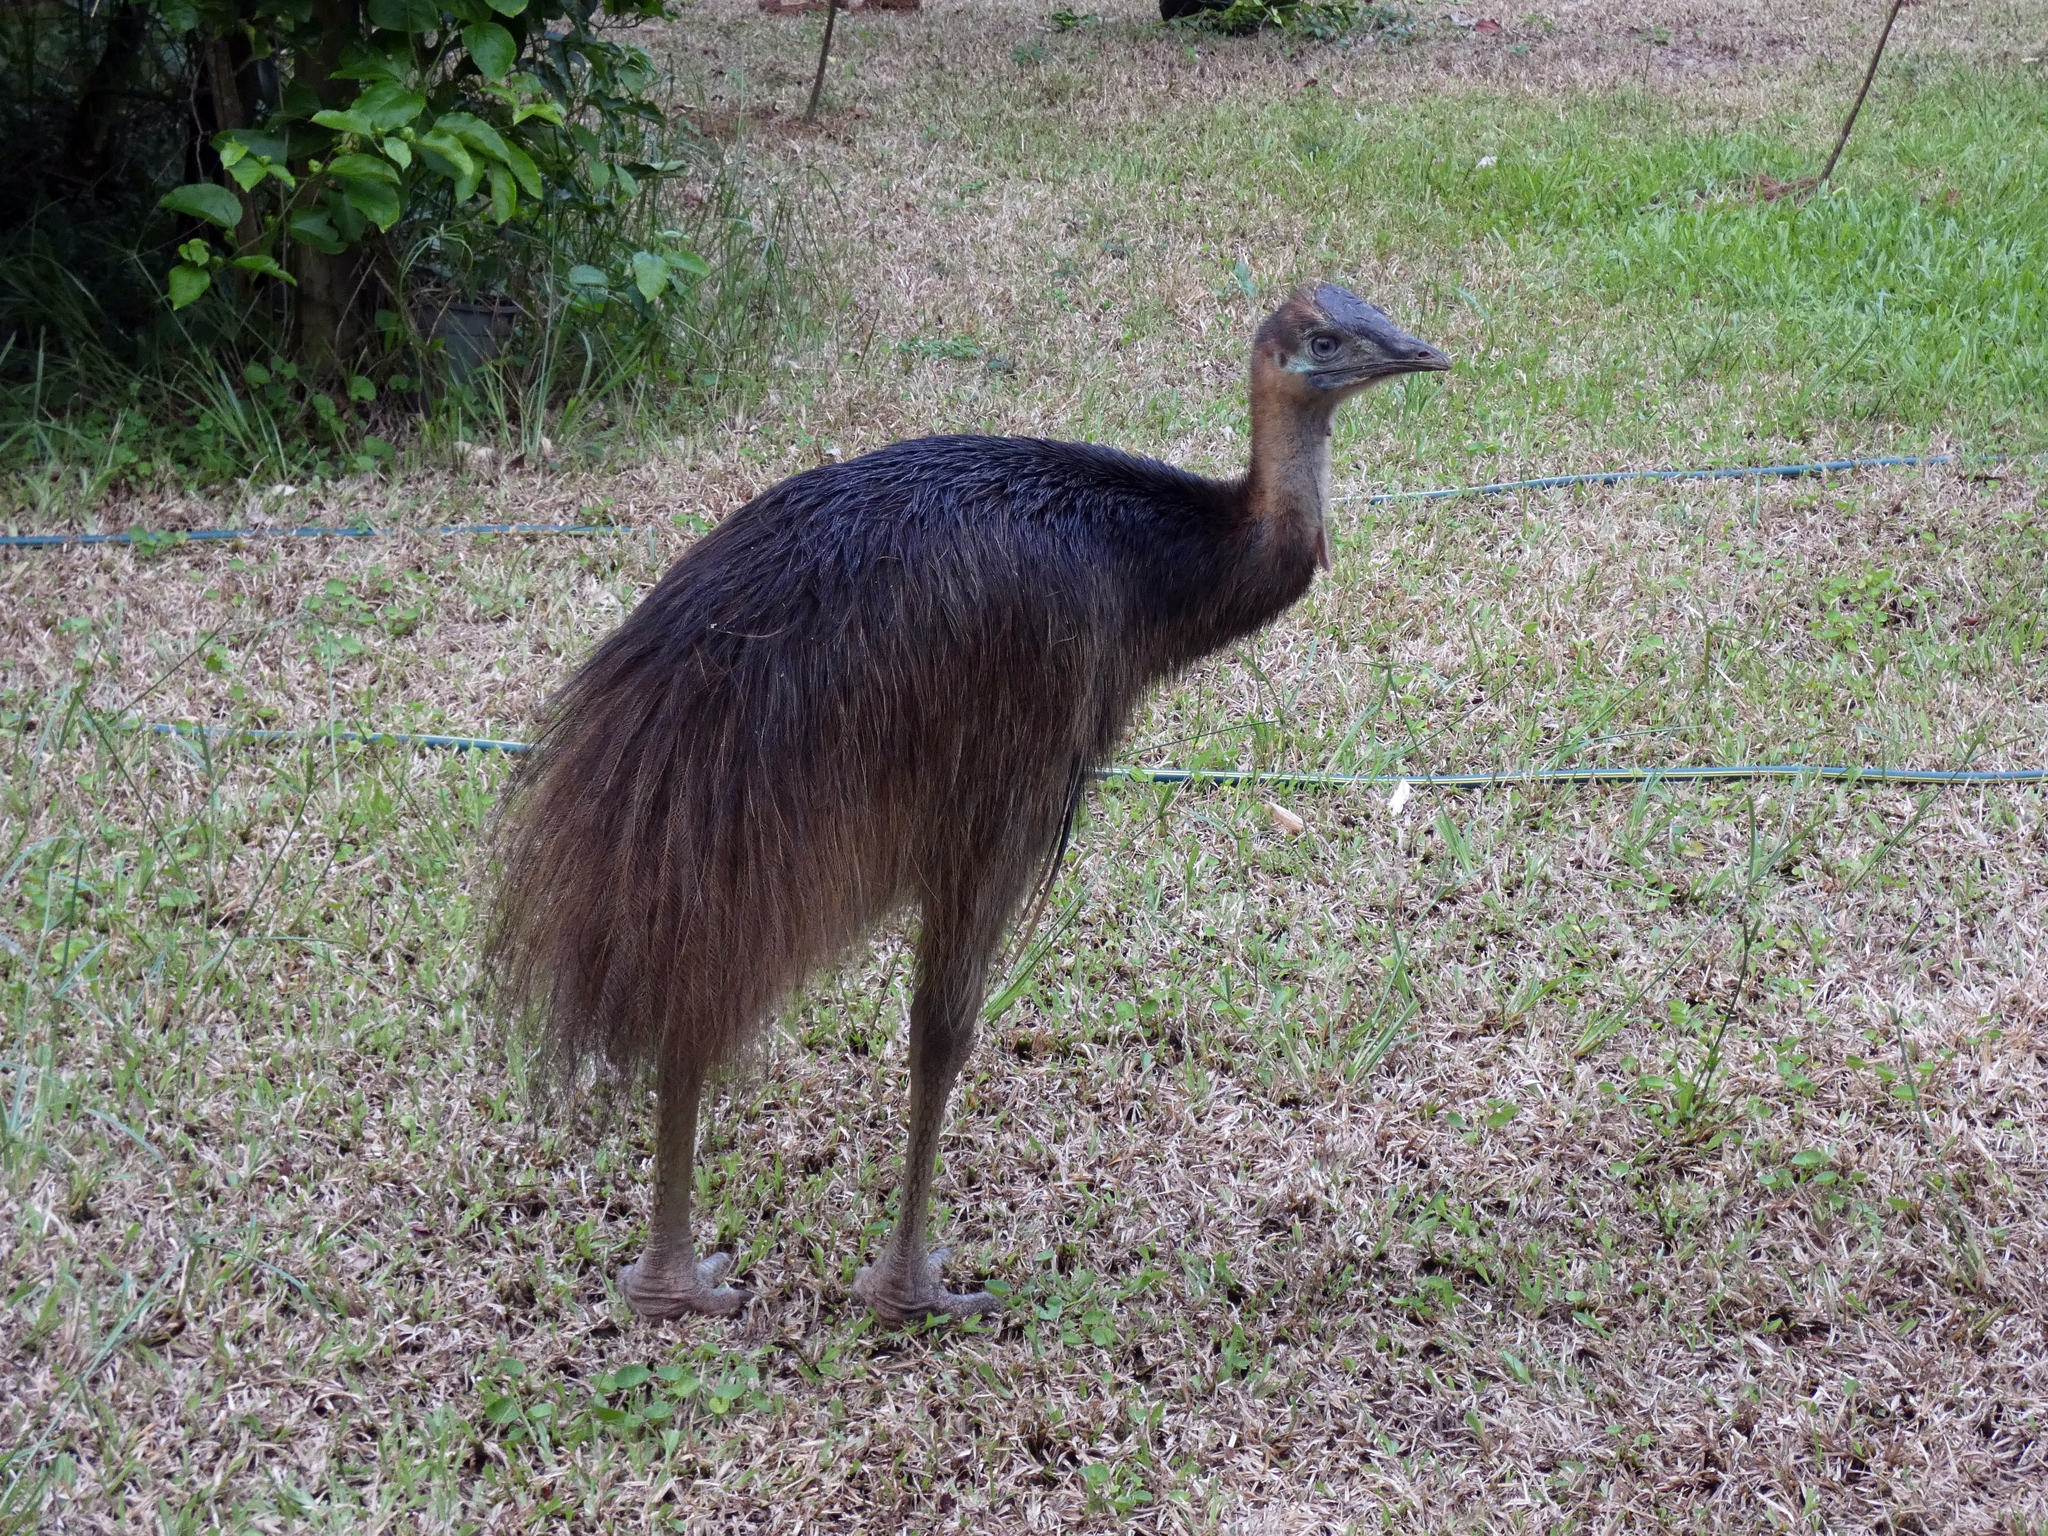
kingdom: Animalia
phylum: Chordata
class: Aves
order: Casuariiformes
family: Casuariidae
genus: Casuarius
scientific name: Casuarius casuarius
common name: Southern cassowary
